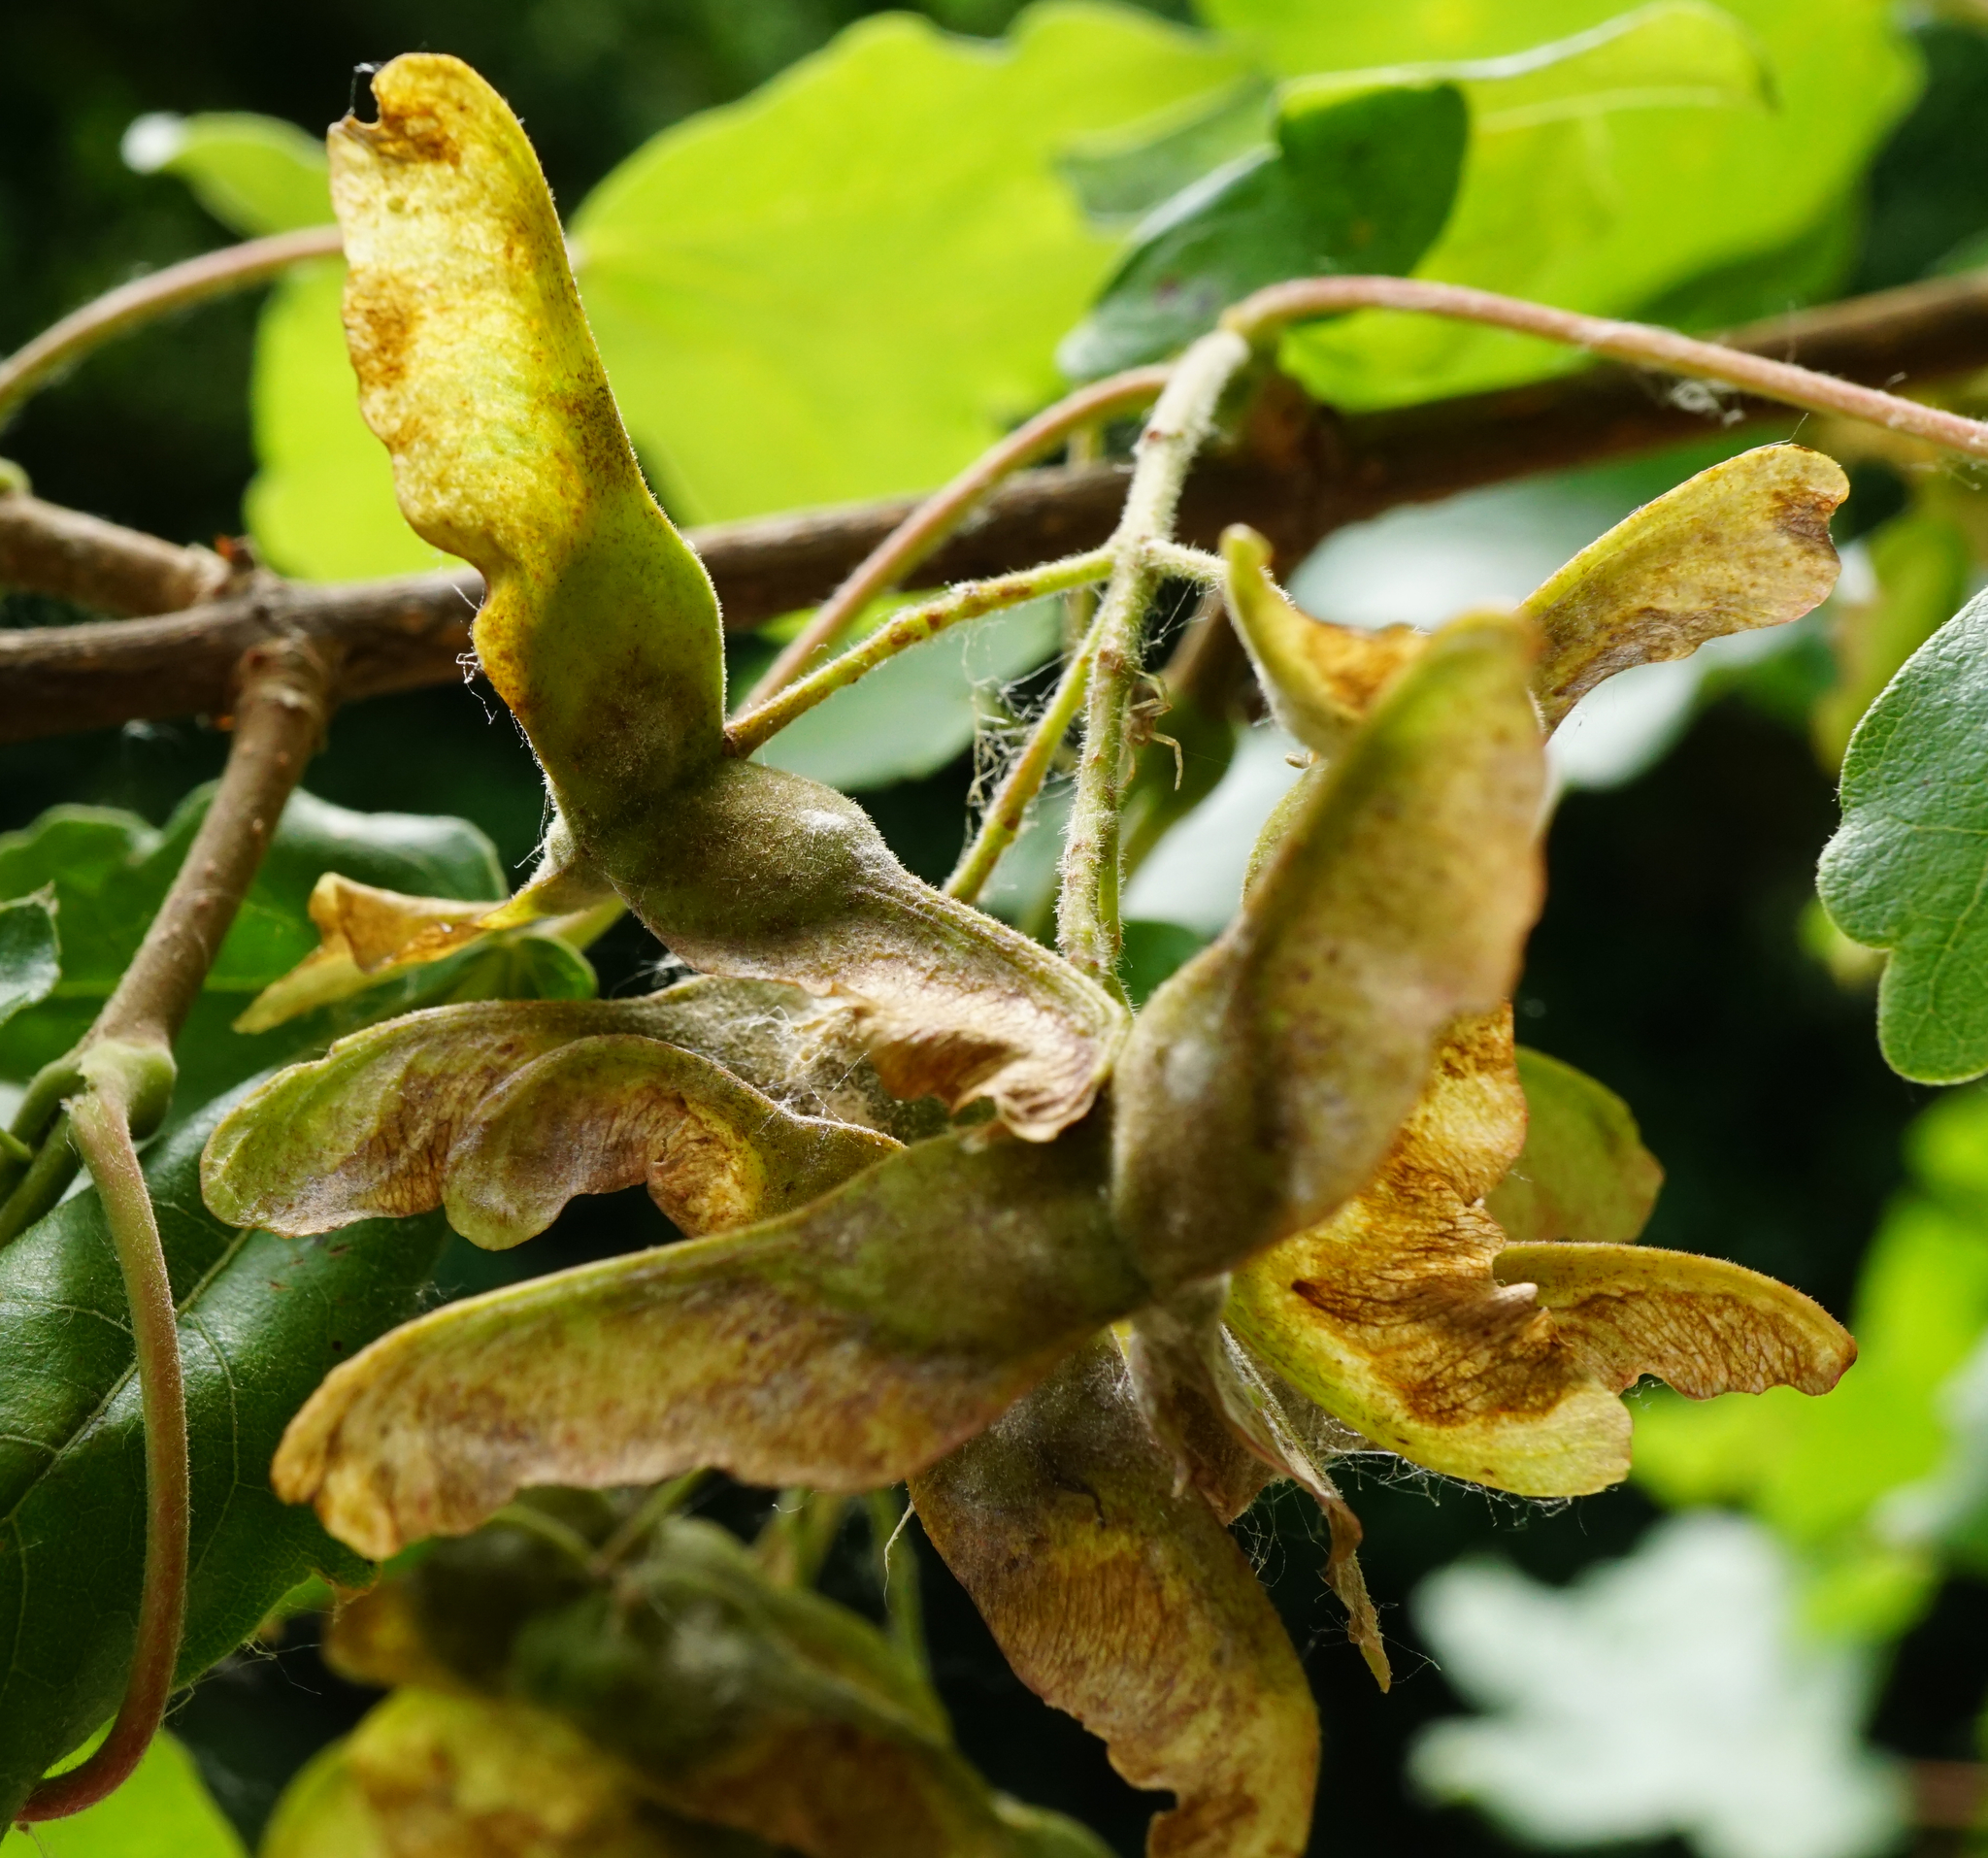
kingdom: Plantae
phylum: Tracheophyta
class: Magnoliopsida
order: Sapindales
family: Sapindaceae
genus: Acer
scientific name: Acer campestre
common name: Field maple
